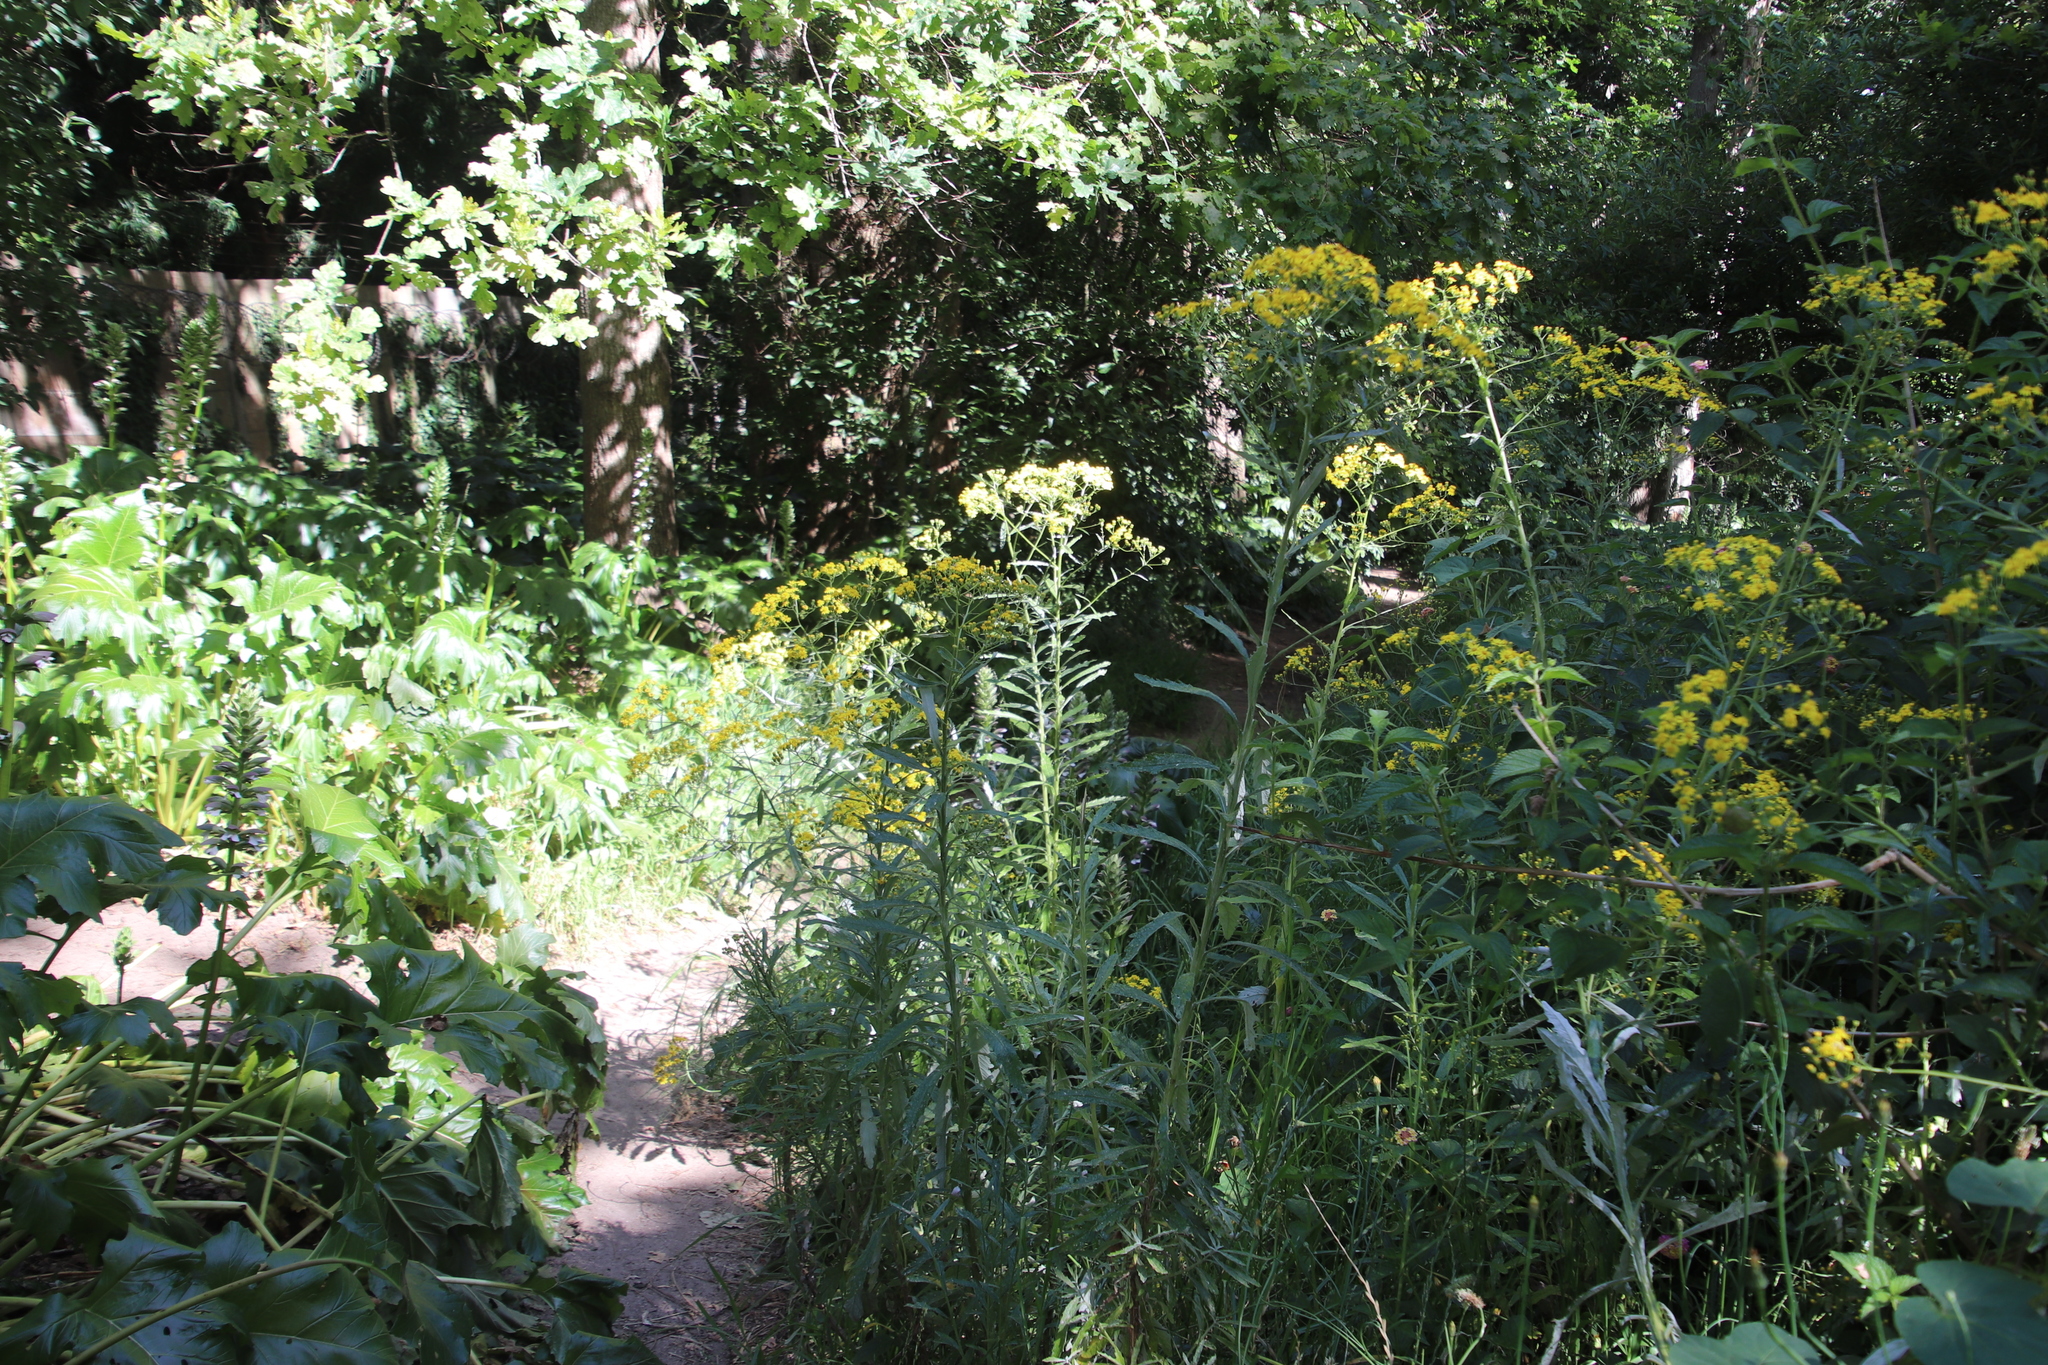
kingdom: Plantae
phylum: Tracheophyta
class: Magnoliopsida
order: Asterales
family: Asteraceae
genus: Senecio
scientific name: Senecio pterophorus
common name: Shoddy ragwort
